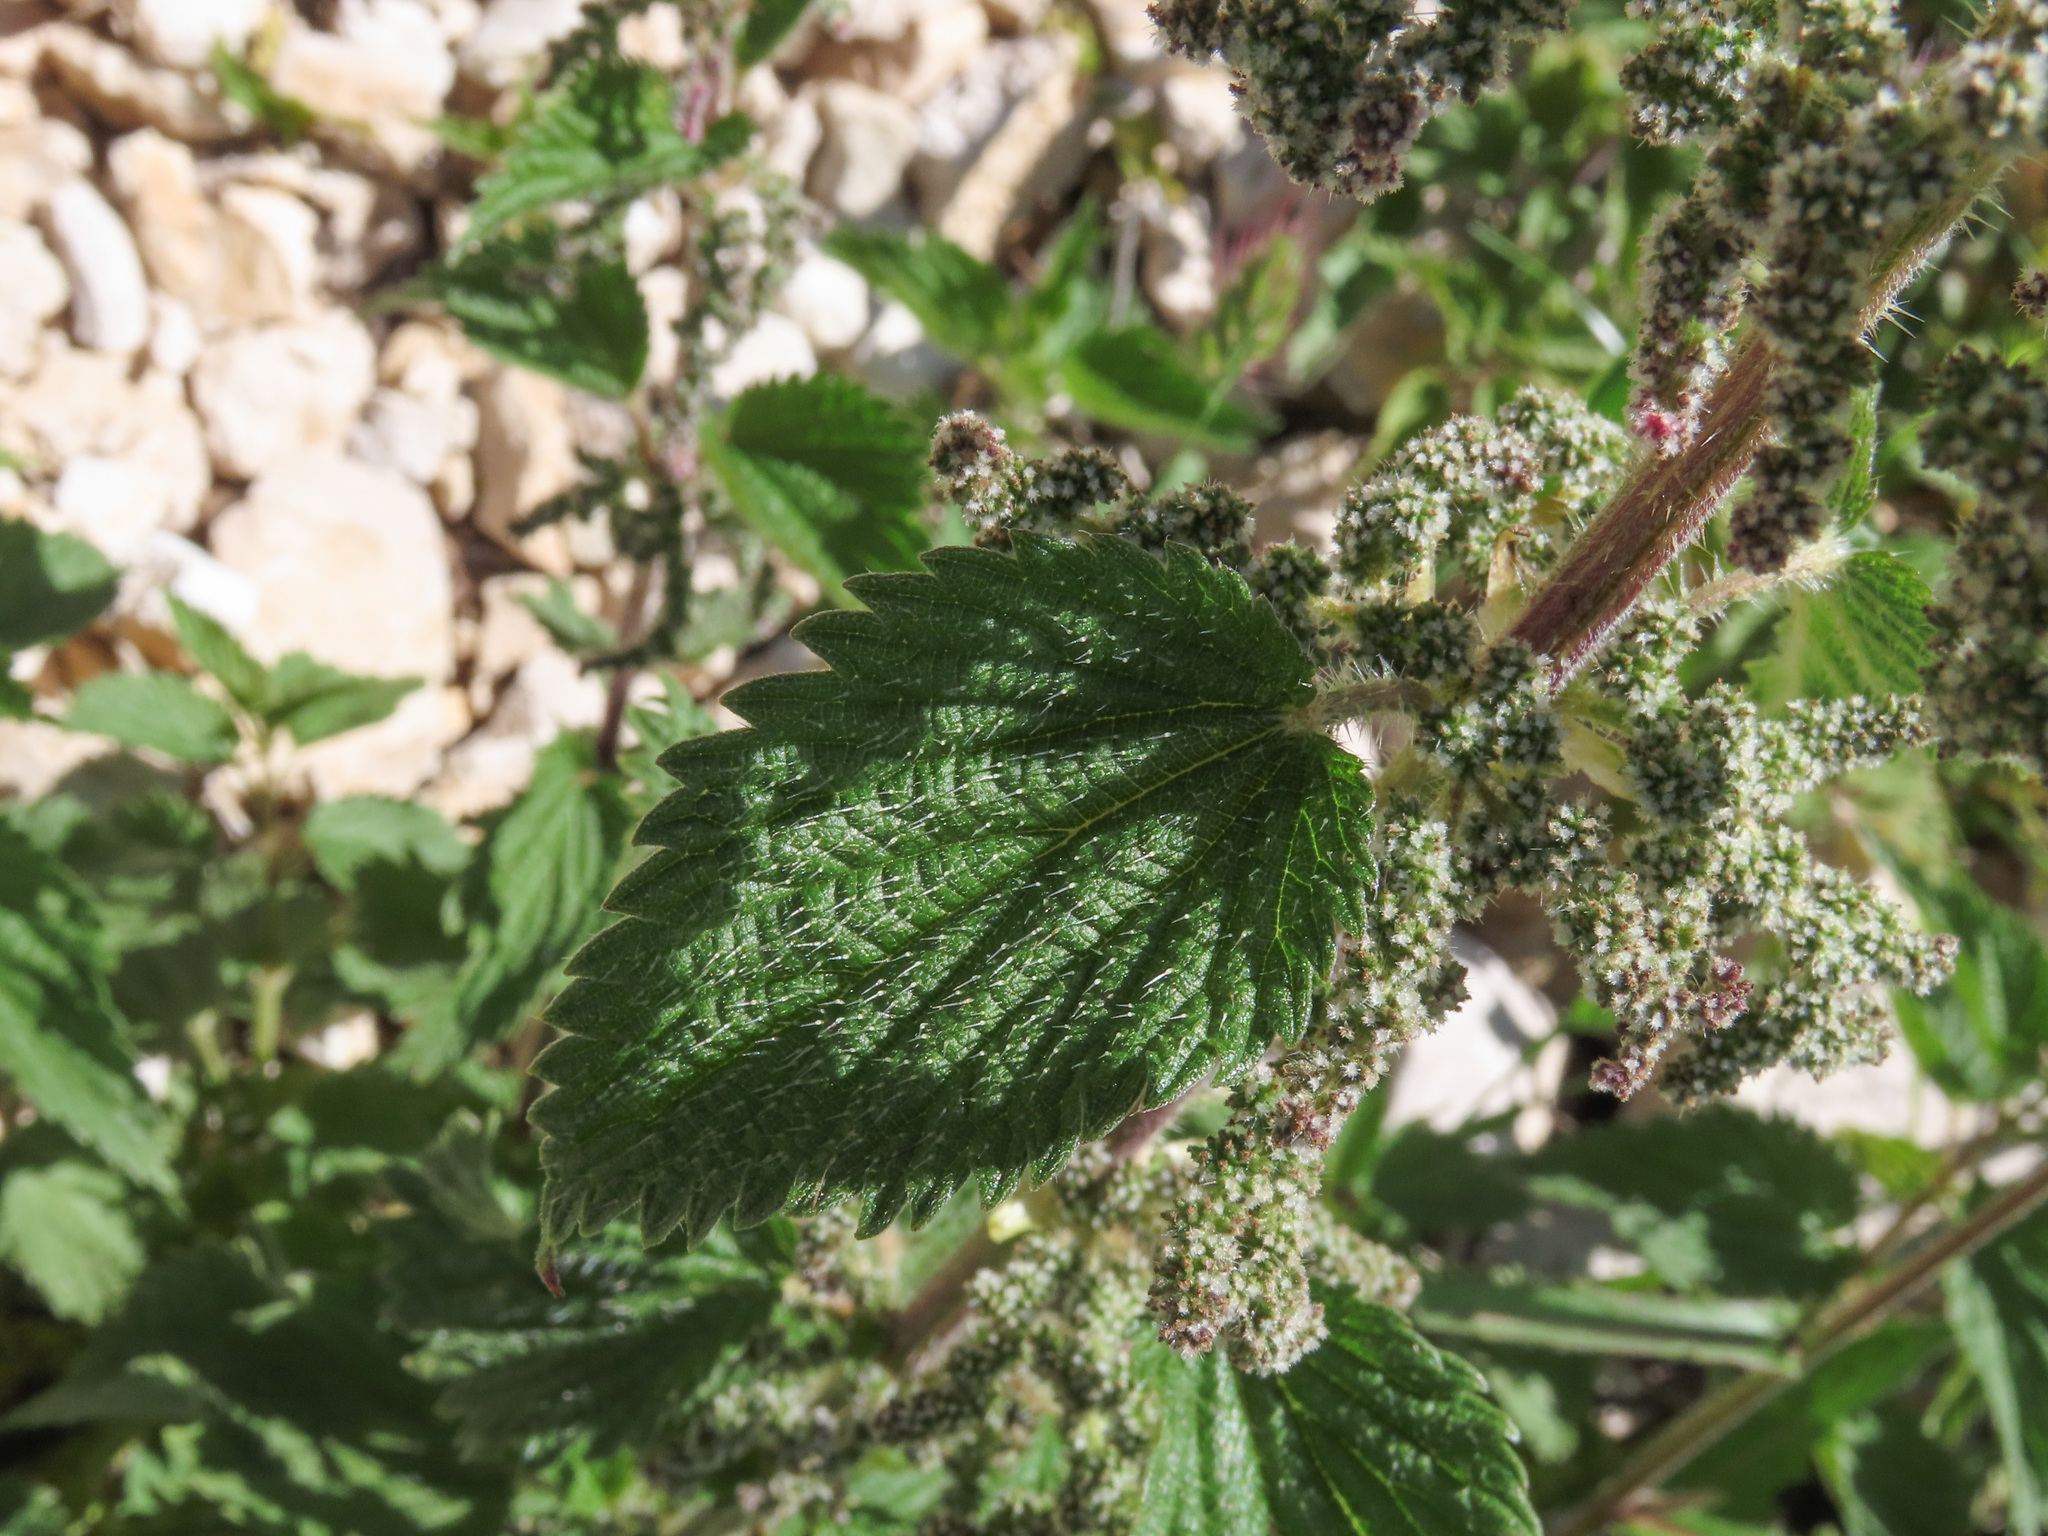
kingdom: Plantae
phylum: Tracheophyta
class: Magnoliopsida
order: Rosales
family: Urticaceae
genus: Urtica
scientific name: Urtica dioica
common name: Common nettle
